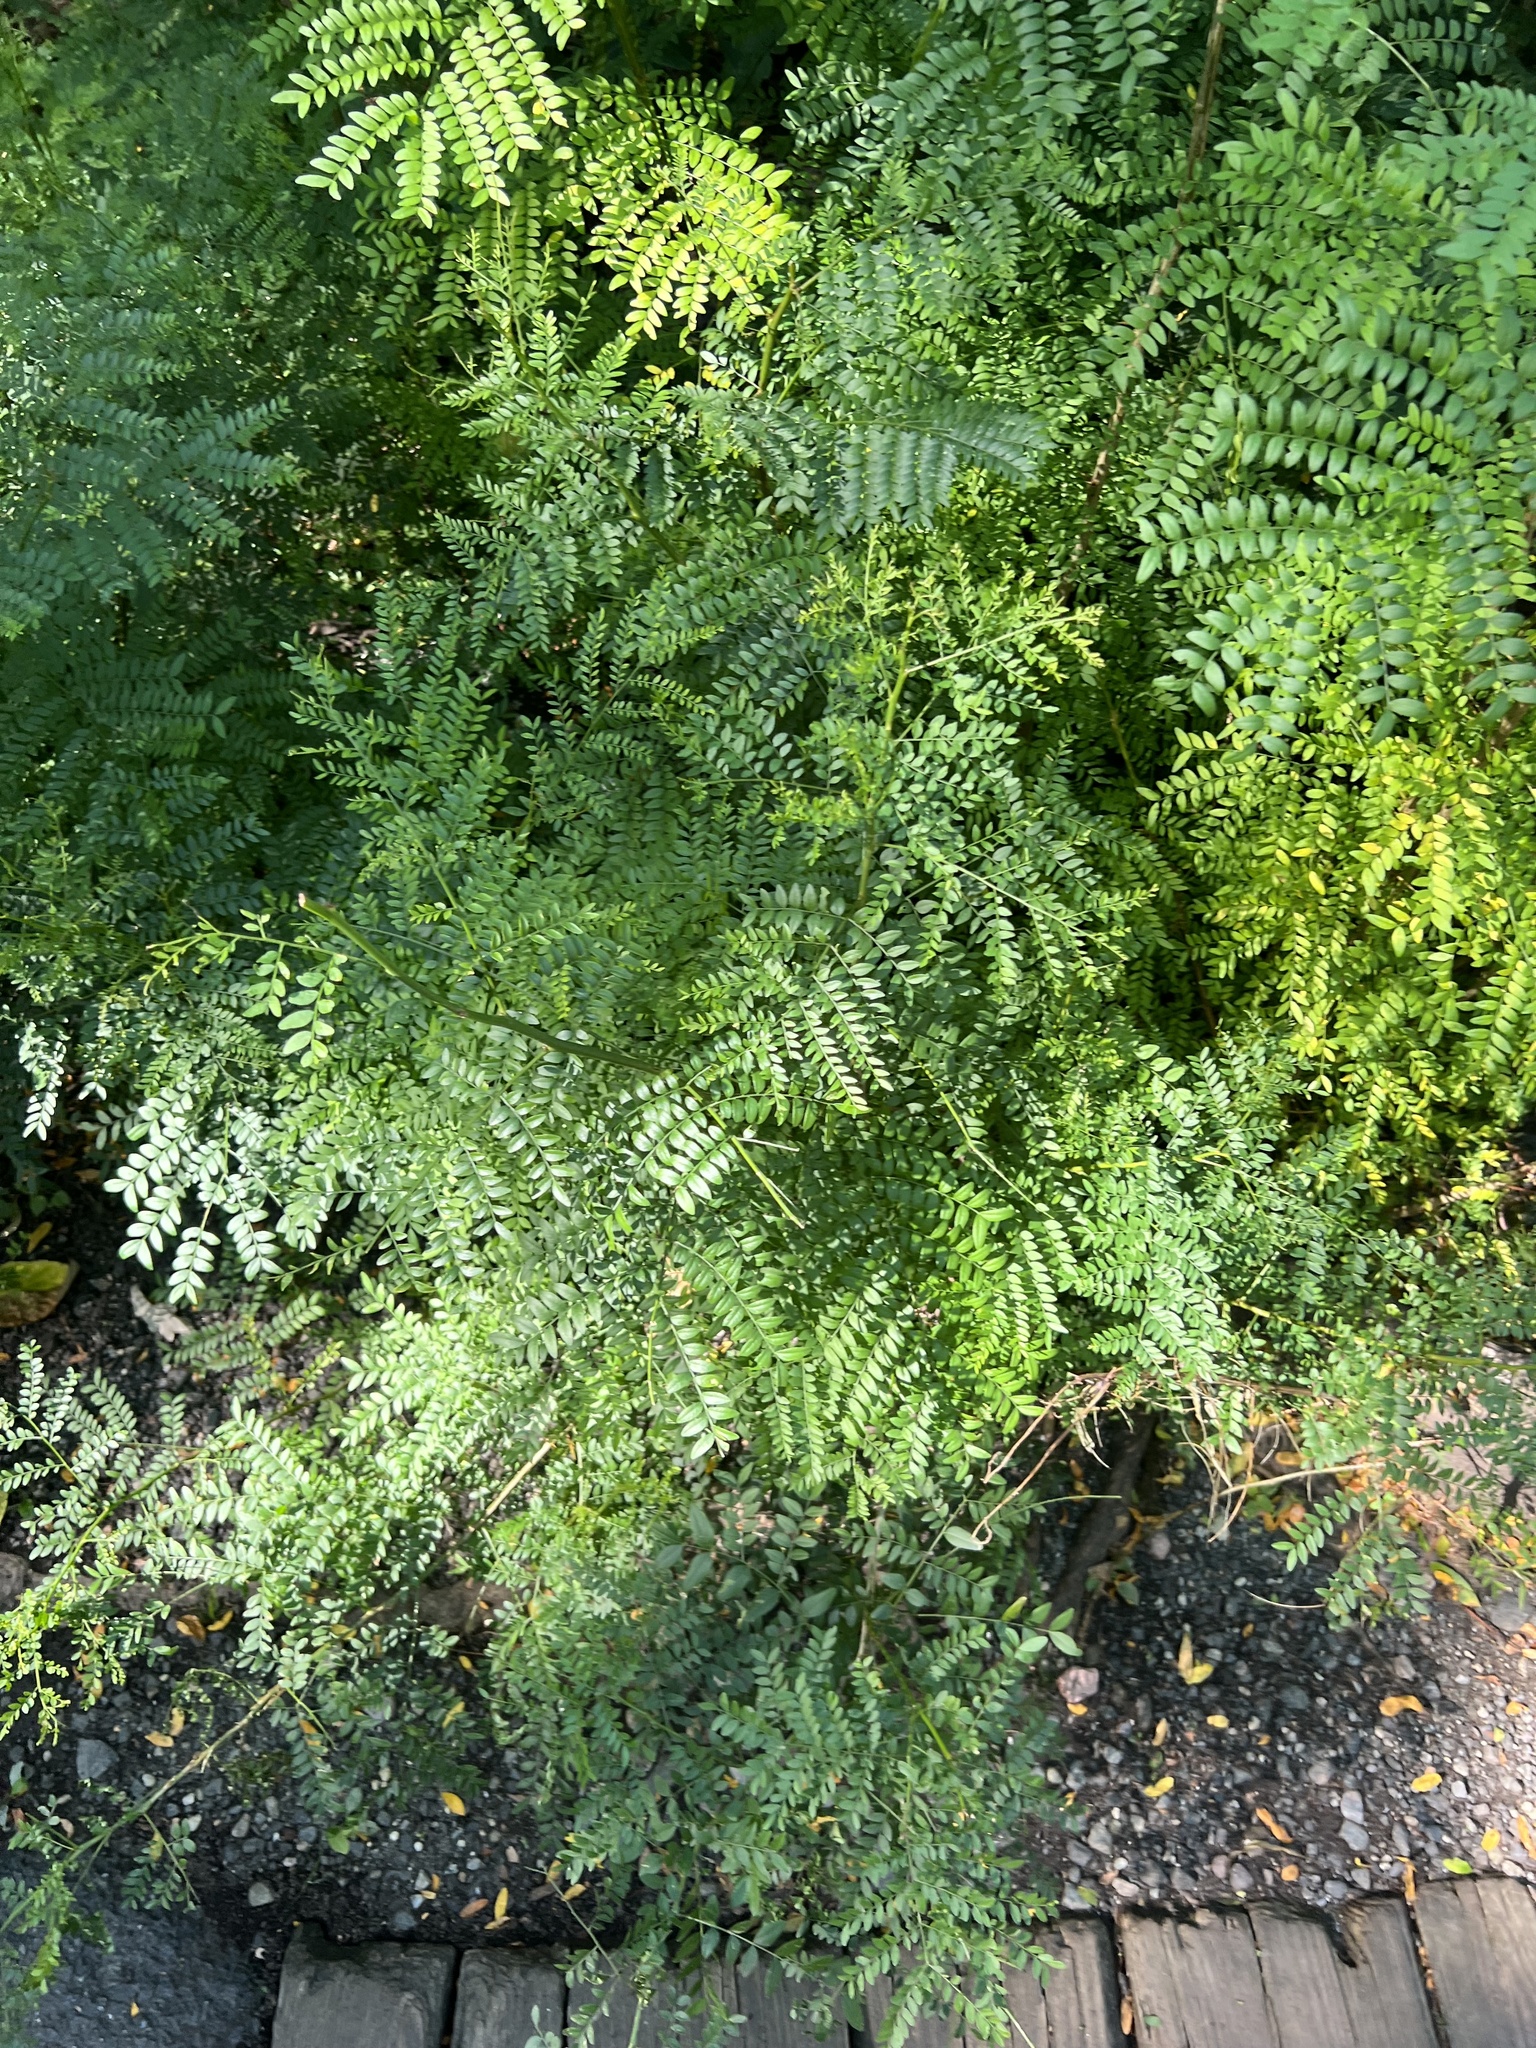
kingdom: Plantae
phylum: Tracheophyta
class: Magnoliopsida
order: Fabales
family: Fabaceae
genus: Gleditsia
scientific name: Gleditsia triacanthos
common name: Common honeylocust
